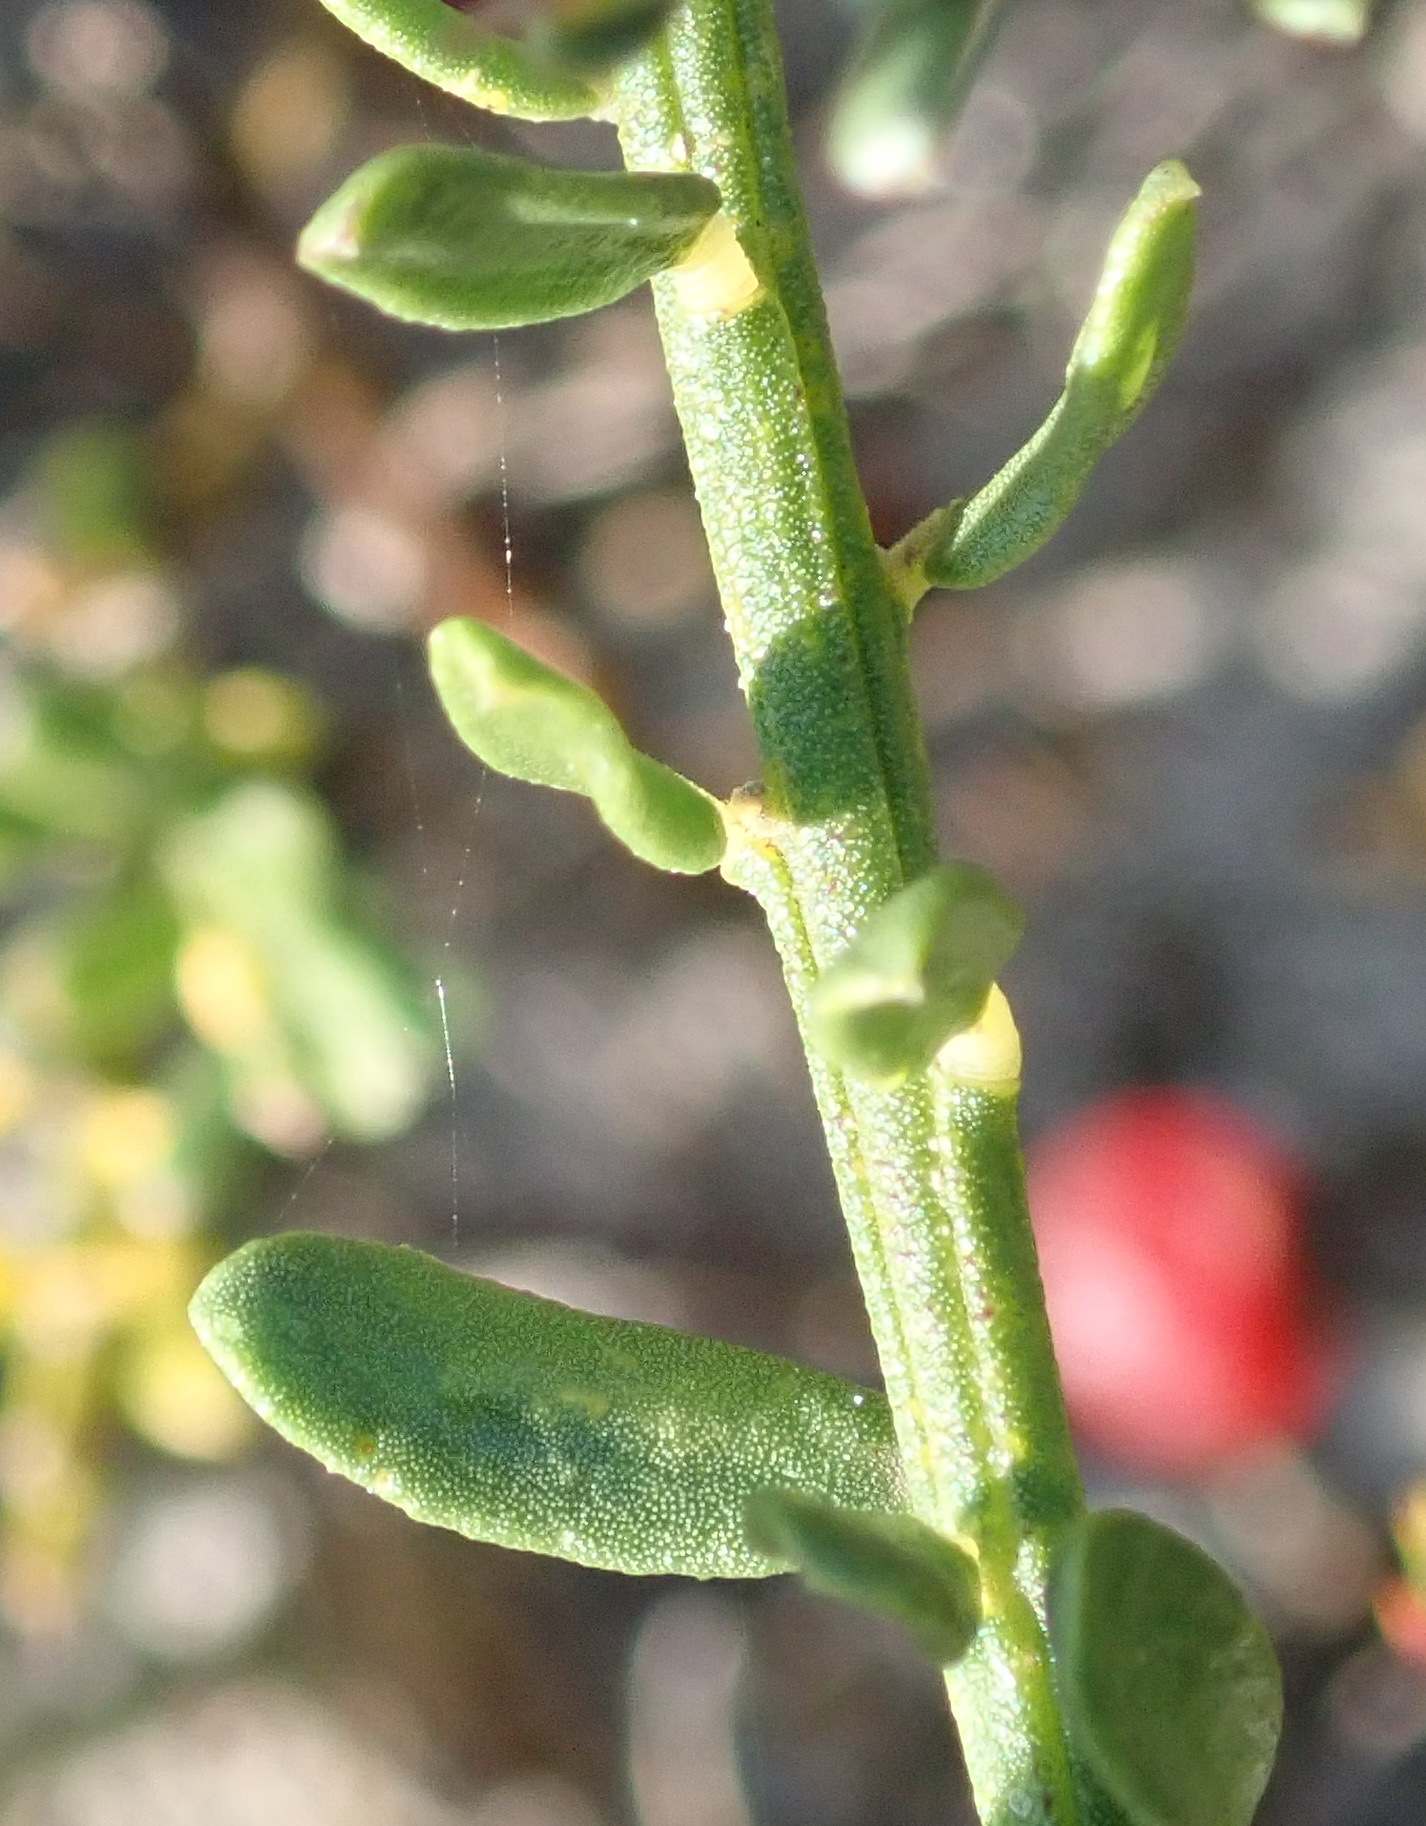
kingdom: Plantae
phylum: Tracheophyta
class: Magnoliopsida
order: Fabales
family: Polygalaceae
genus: Muraltia
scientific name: Muraltia spinosa
